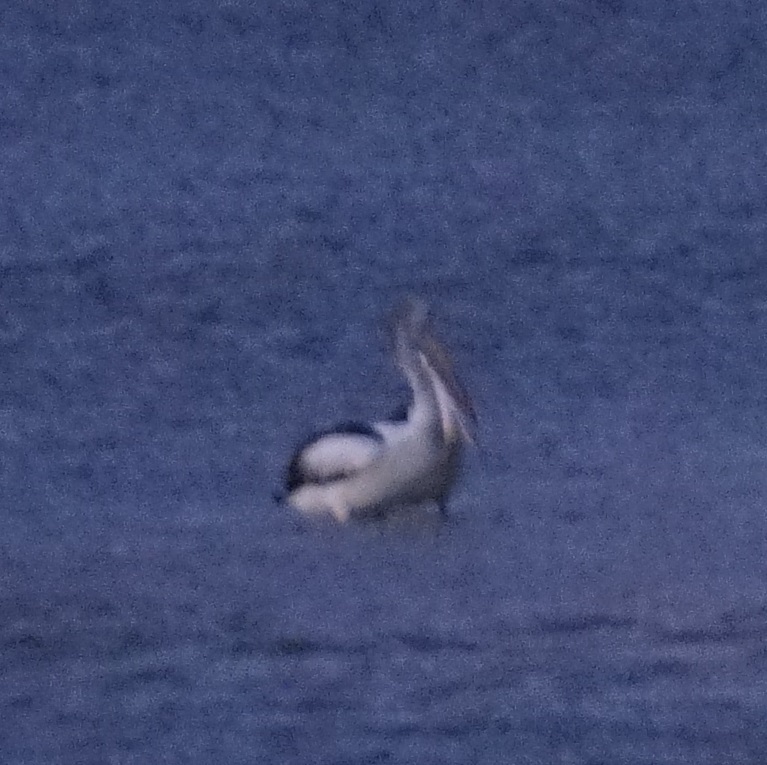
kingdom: Animalia
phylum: Chordata
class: Aves
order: Pelecaniformes
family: Pelecanidae
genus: Pelecanus
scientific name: Pelecanus conspicillatus
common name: Australian pelican
